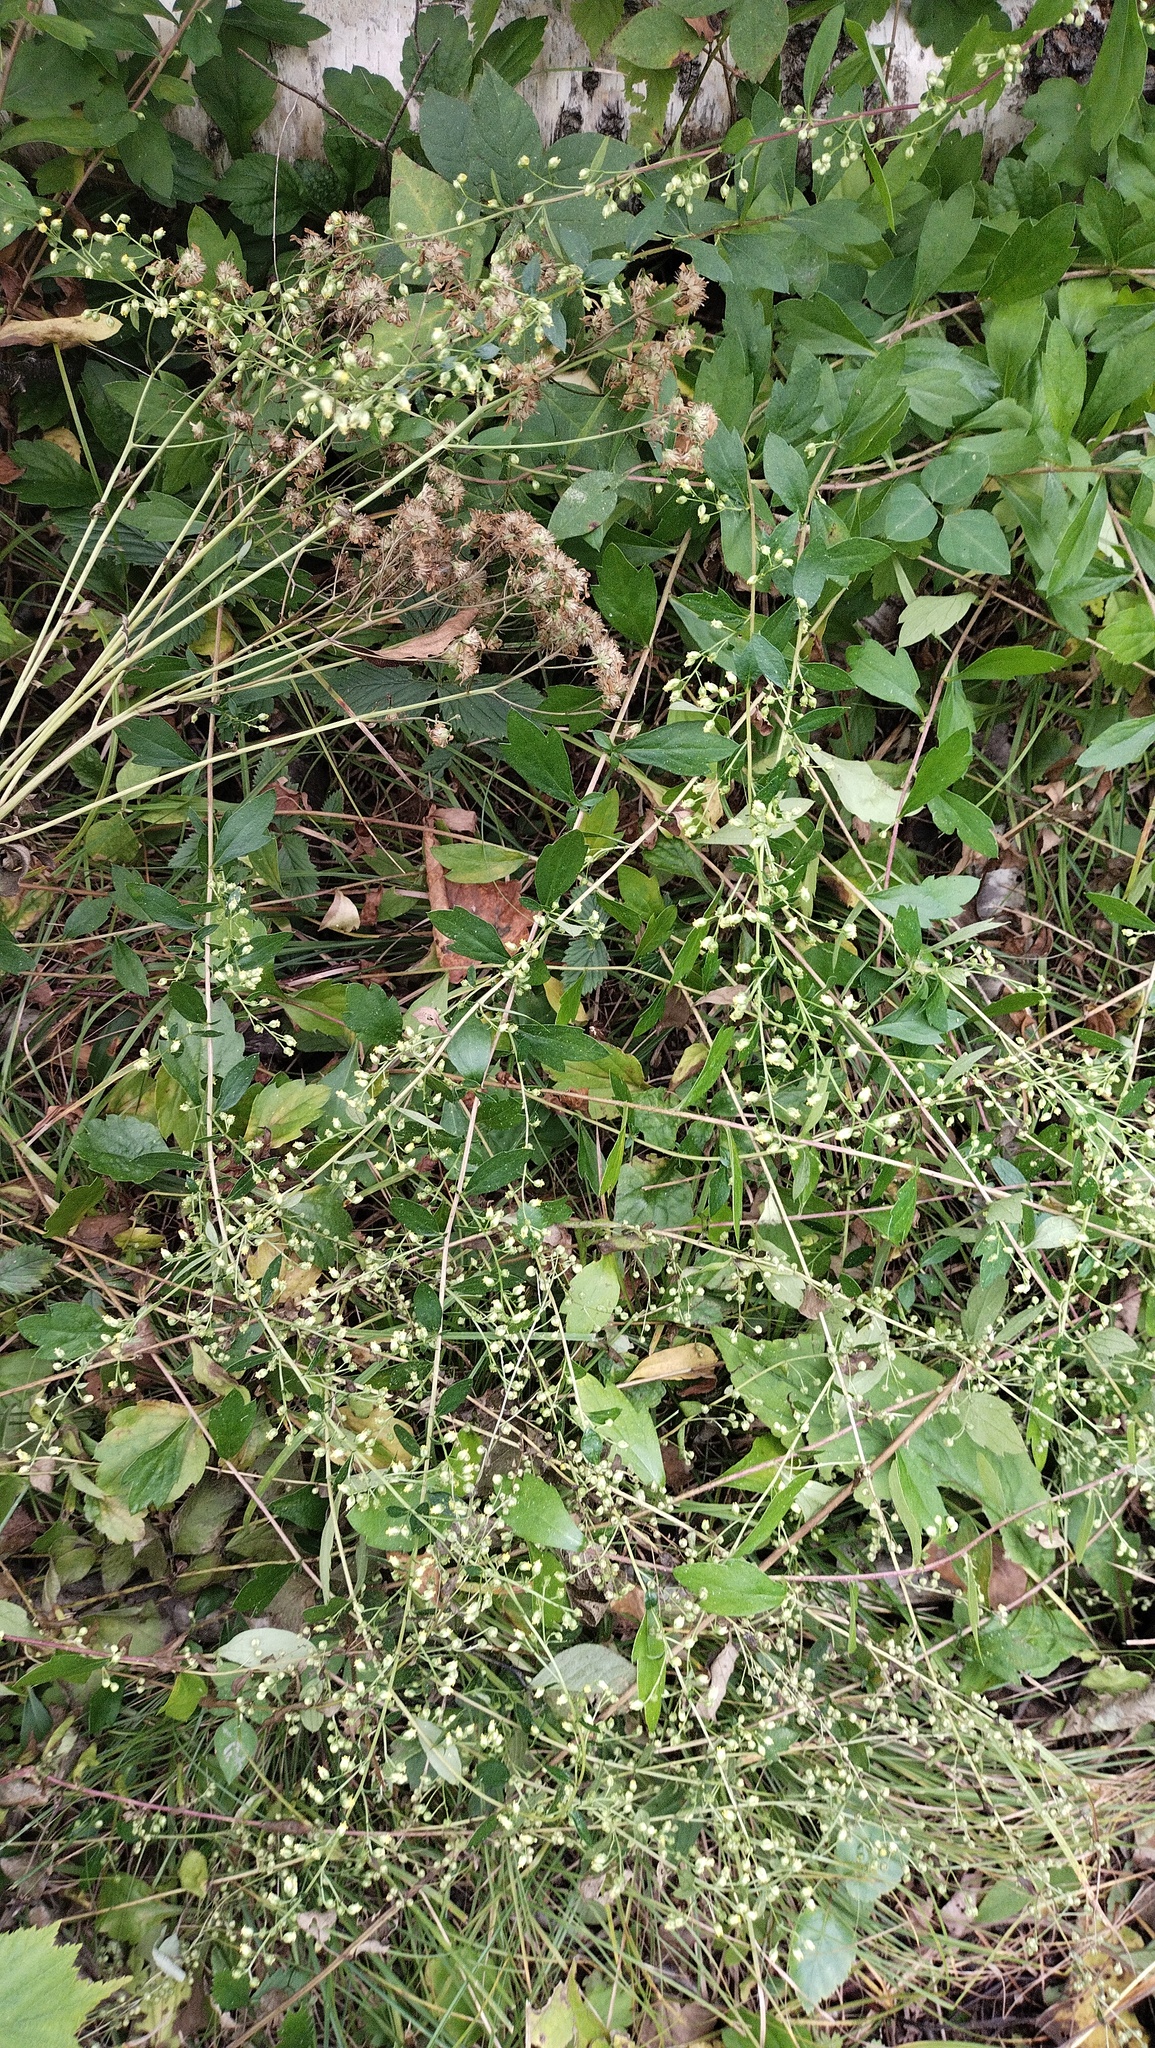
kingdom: Plantae
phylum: Tracheophyta
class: Magnoliopsida
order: Asterales
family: Asteraceae
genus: Artemisia
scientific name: Artemisia keiskeana
